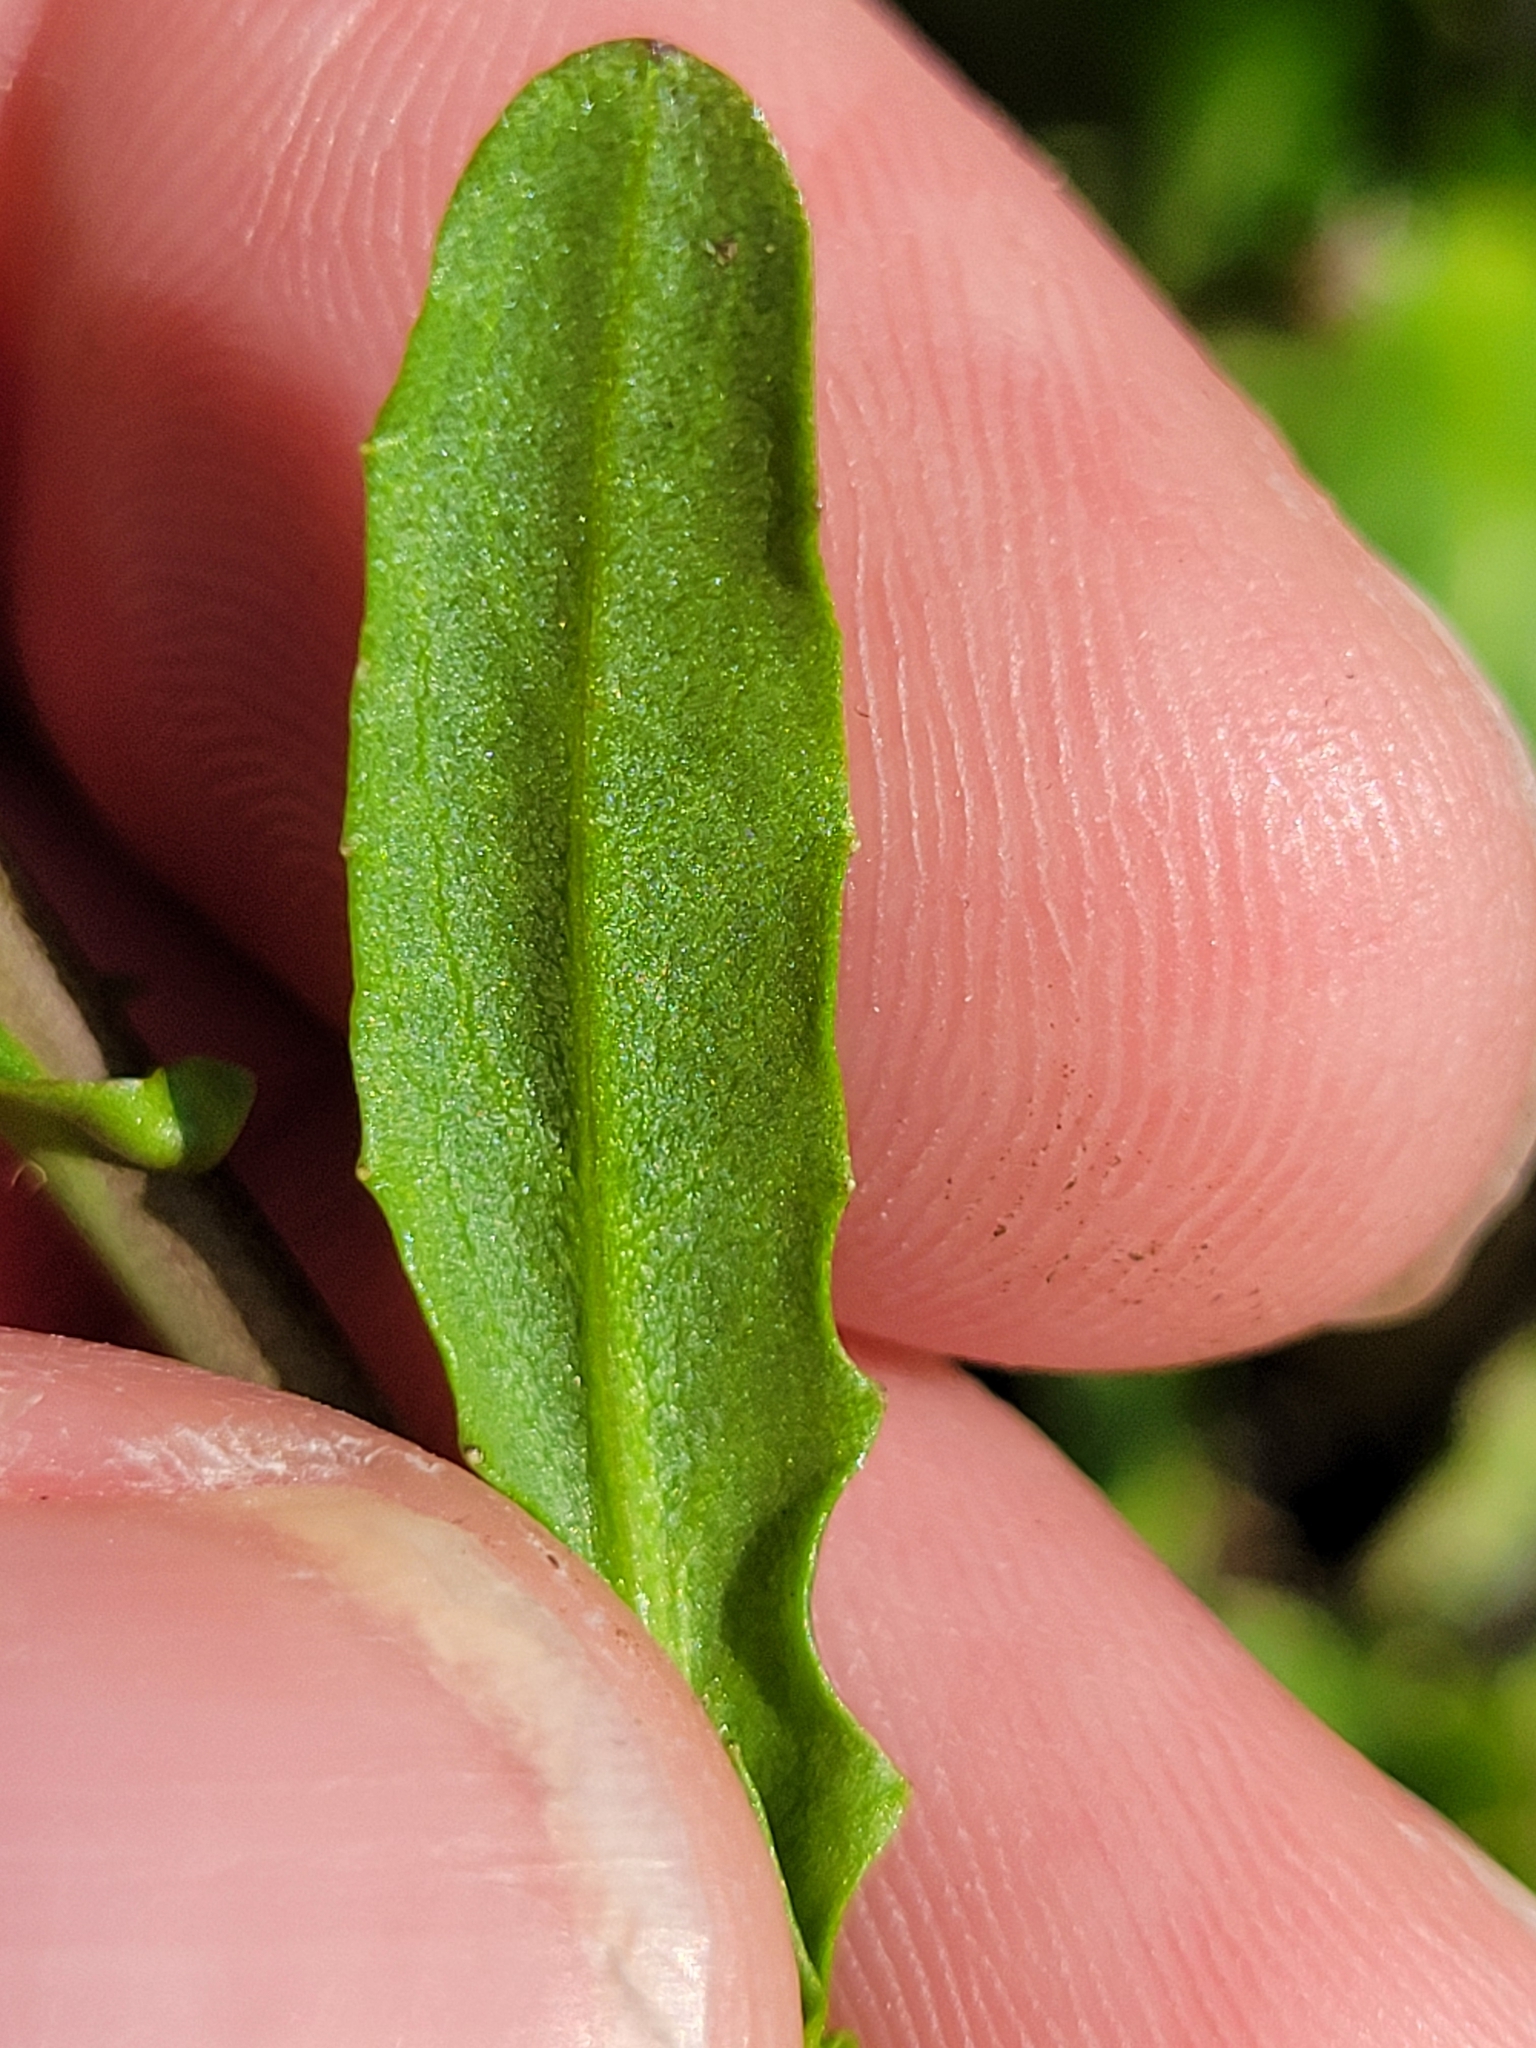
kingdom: Plantae
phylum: Tracheophyta
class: Magnoliopsida
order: Brassicales
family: Brassicaceae
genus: Mummenhoffia
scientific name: Mummenhoffia alliacea
